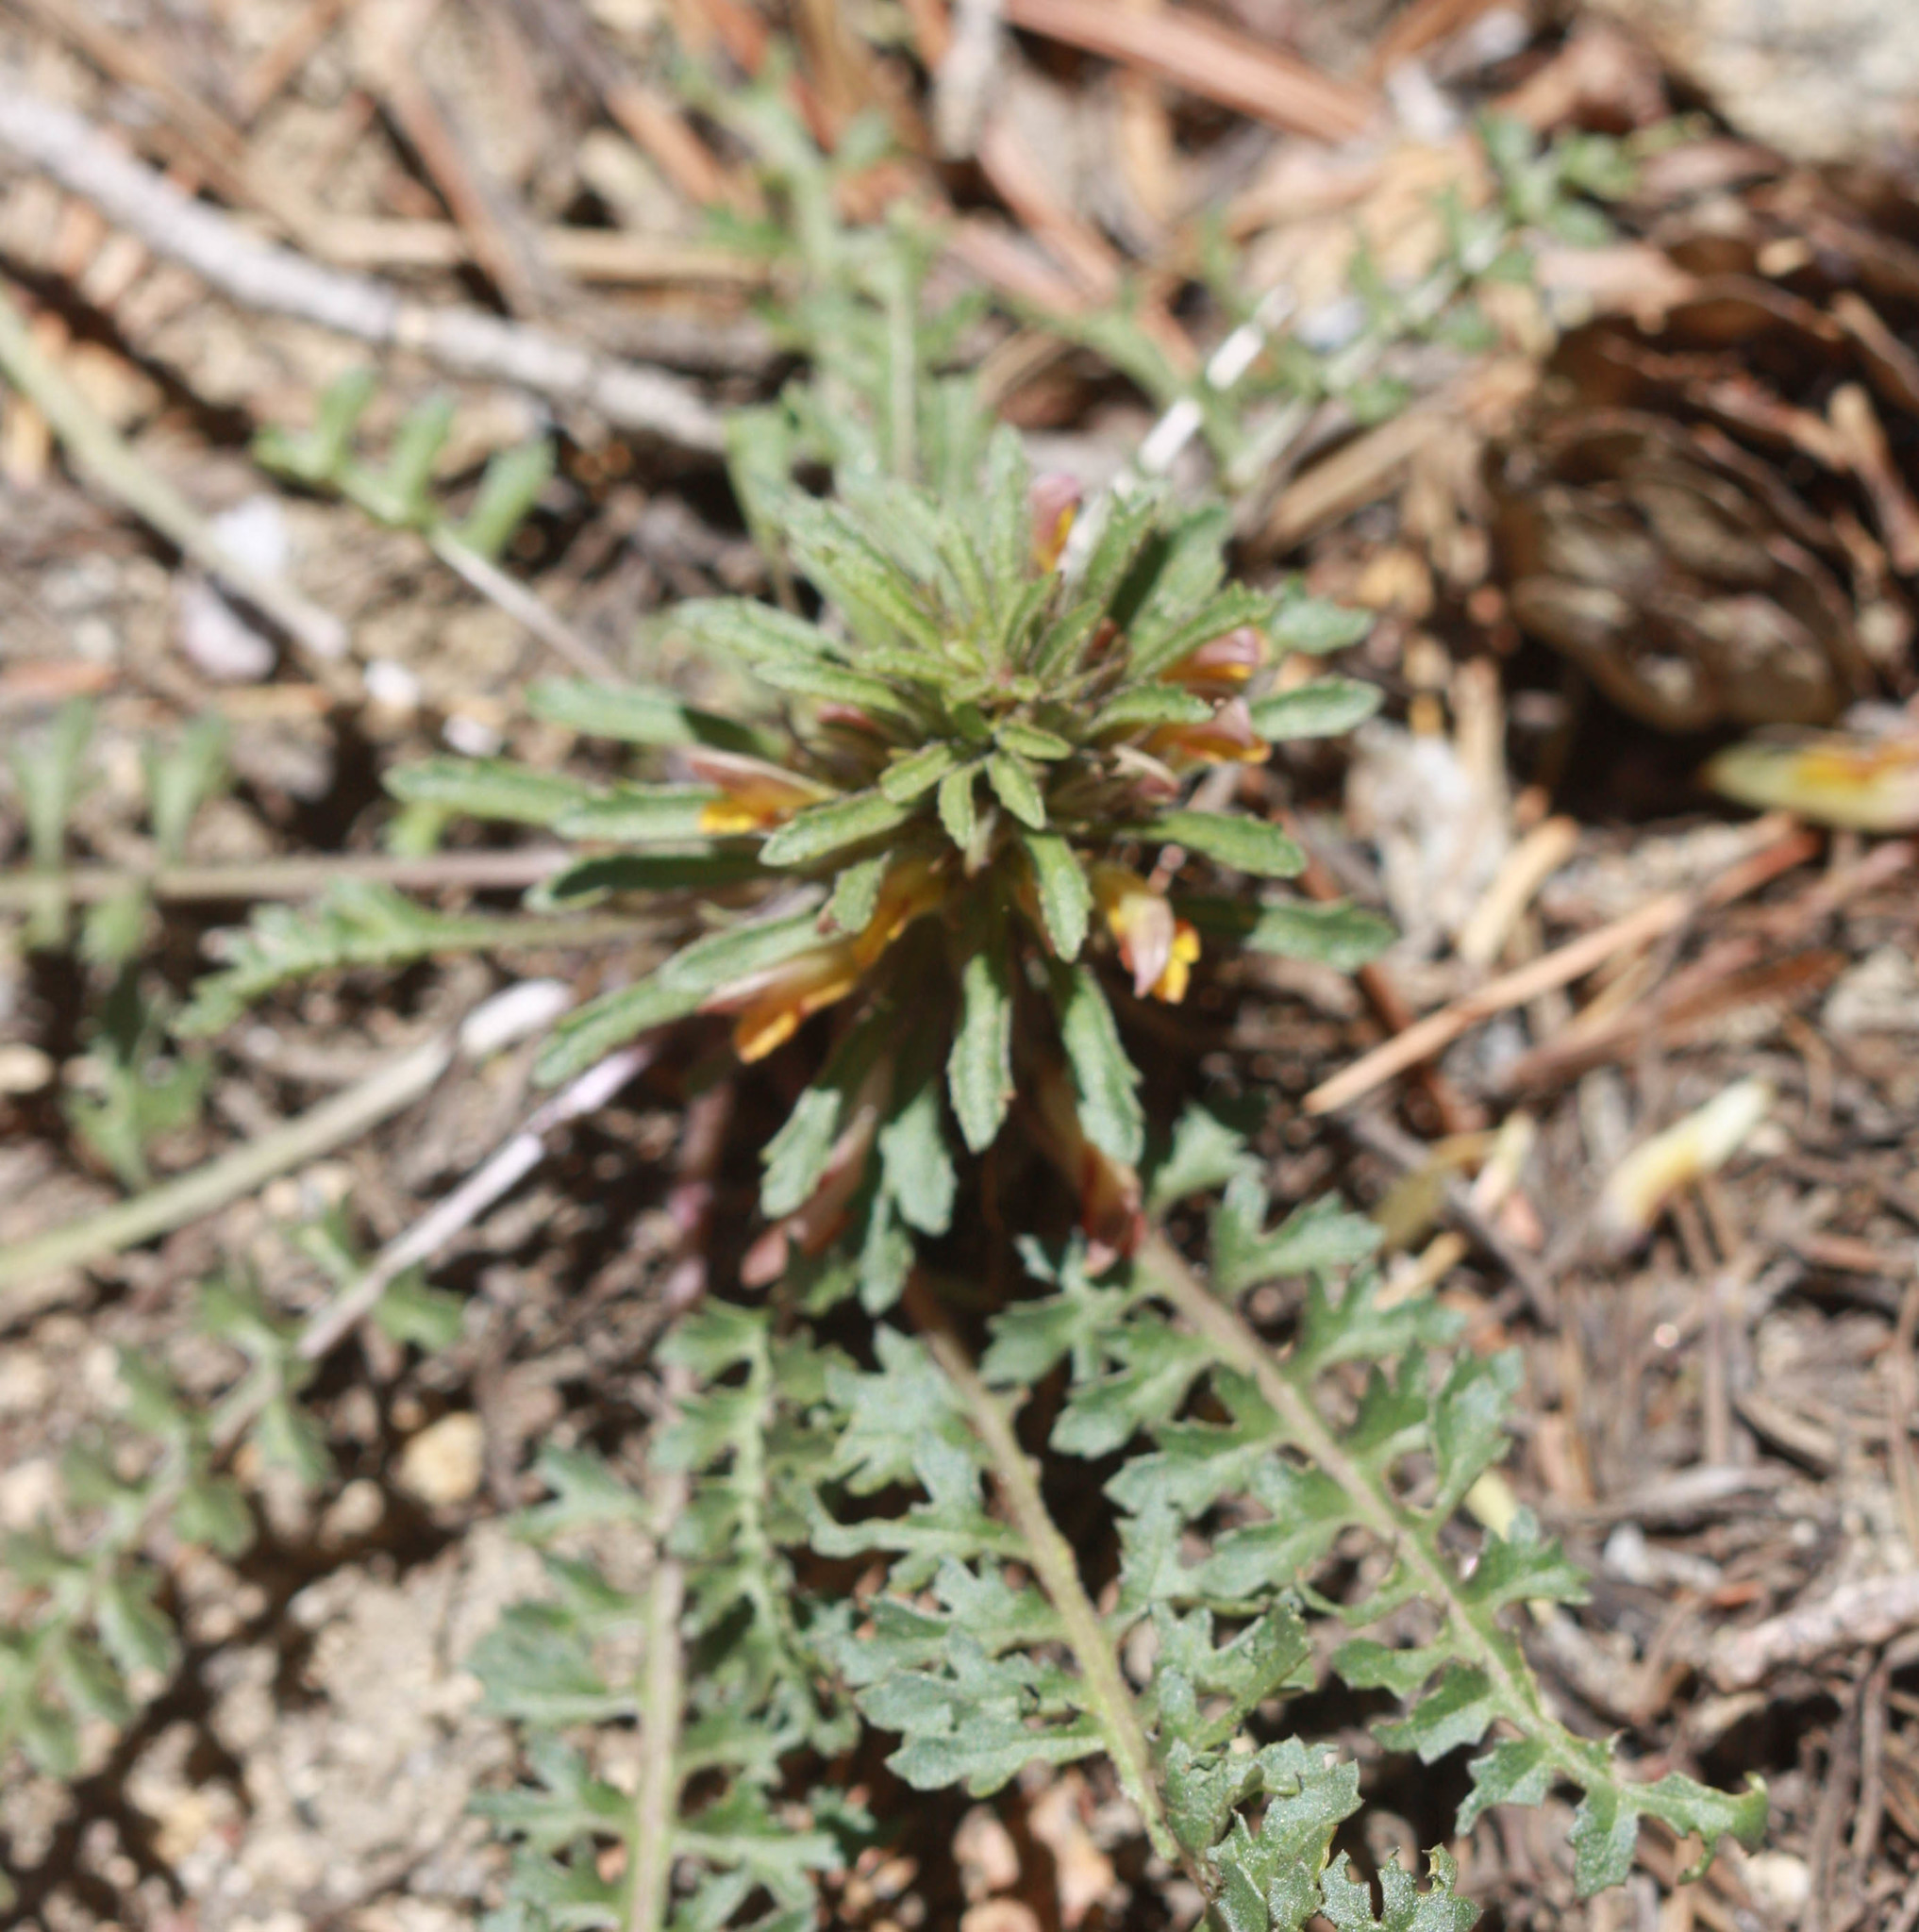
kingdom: Plantae
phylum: Tracheophyta
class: Magnoliopsida
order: Lamiales
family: Orobanchaceae
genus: Pedicularis
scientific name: Pedicularis semibarbata
